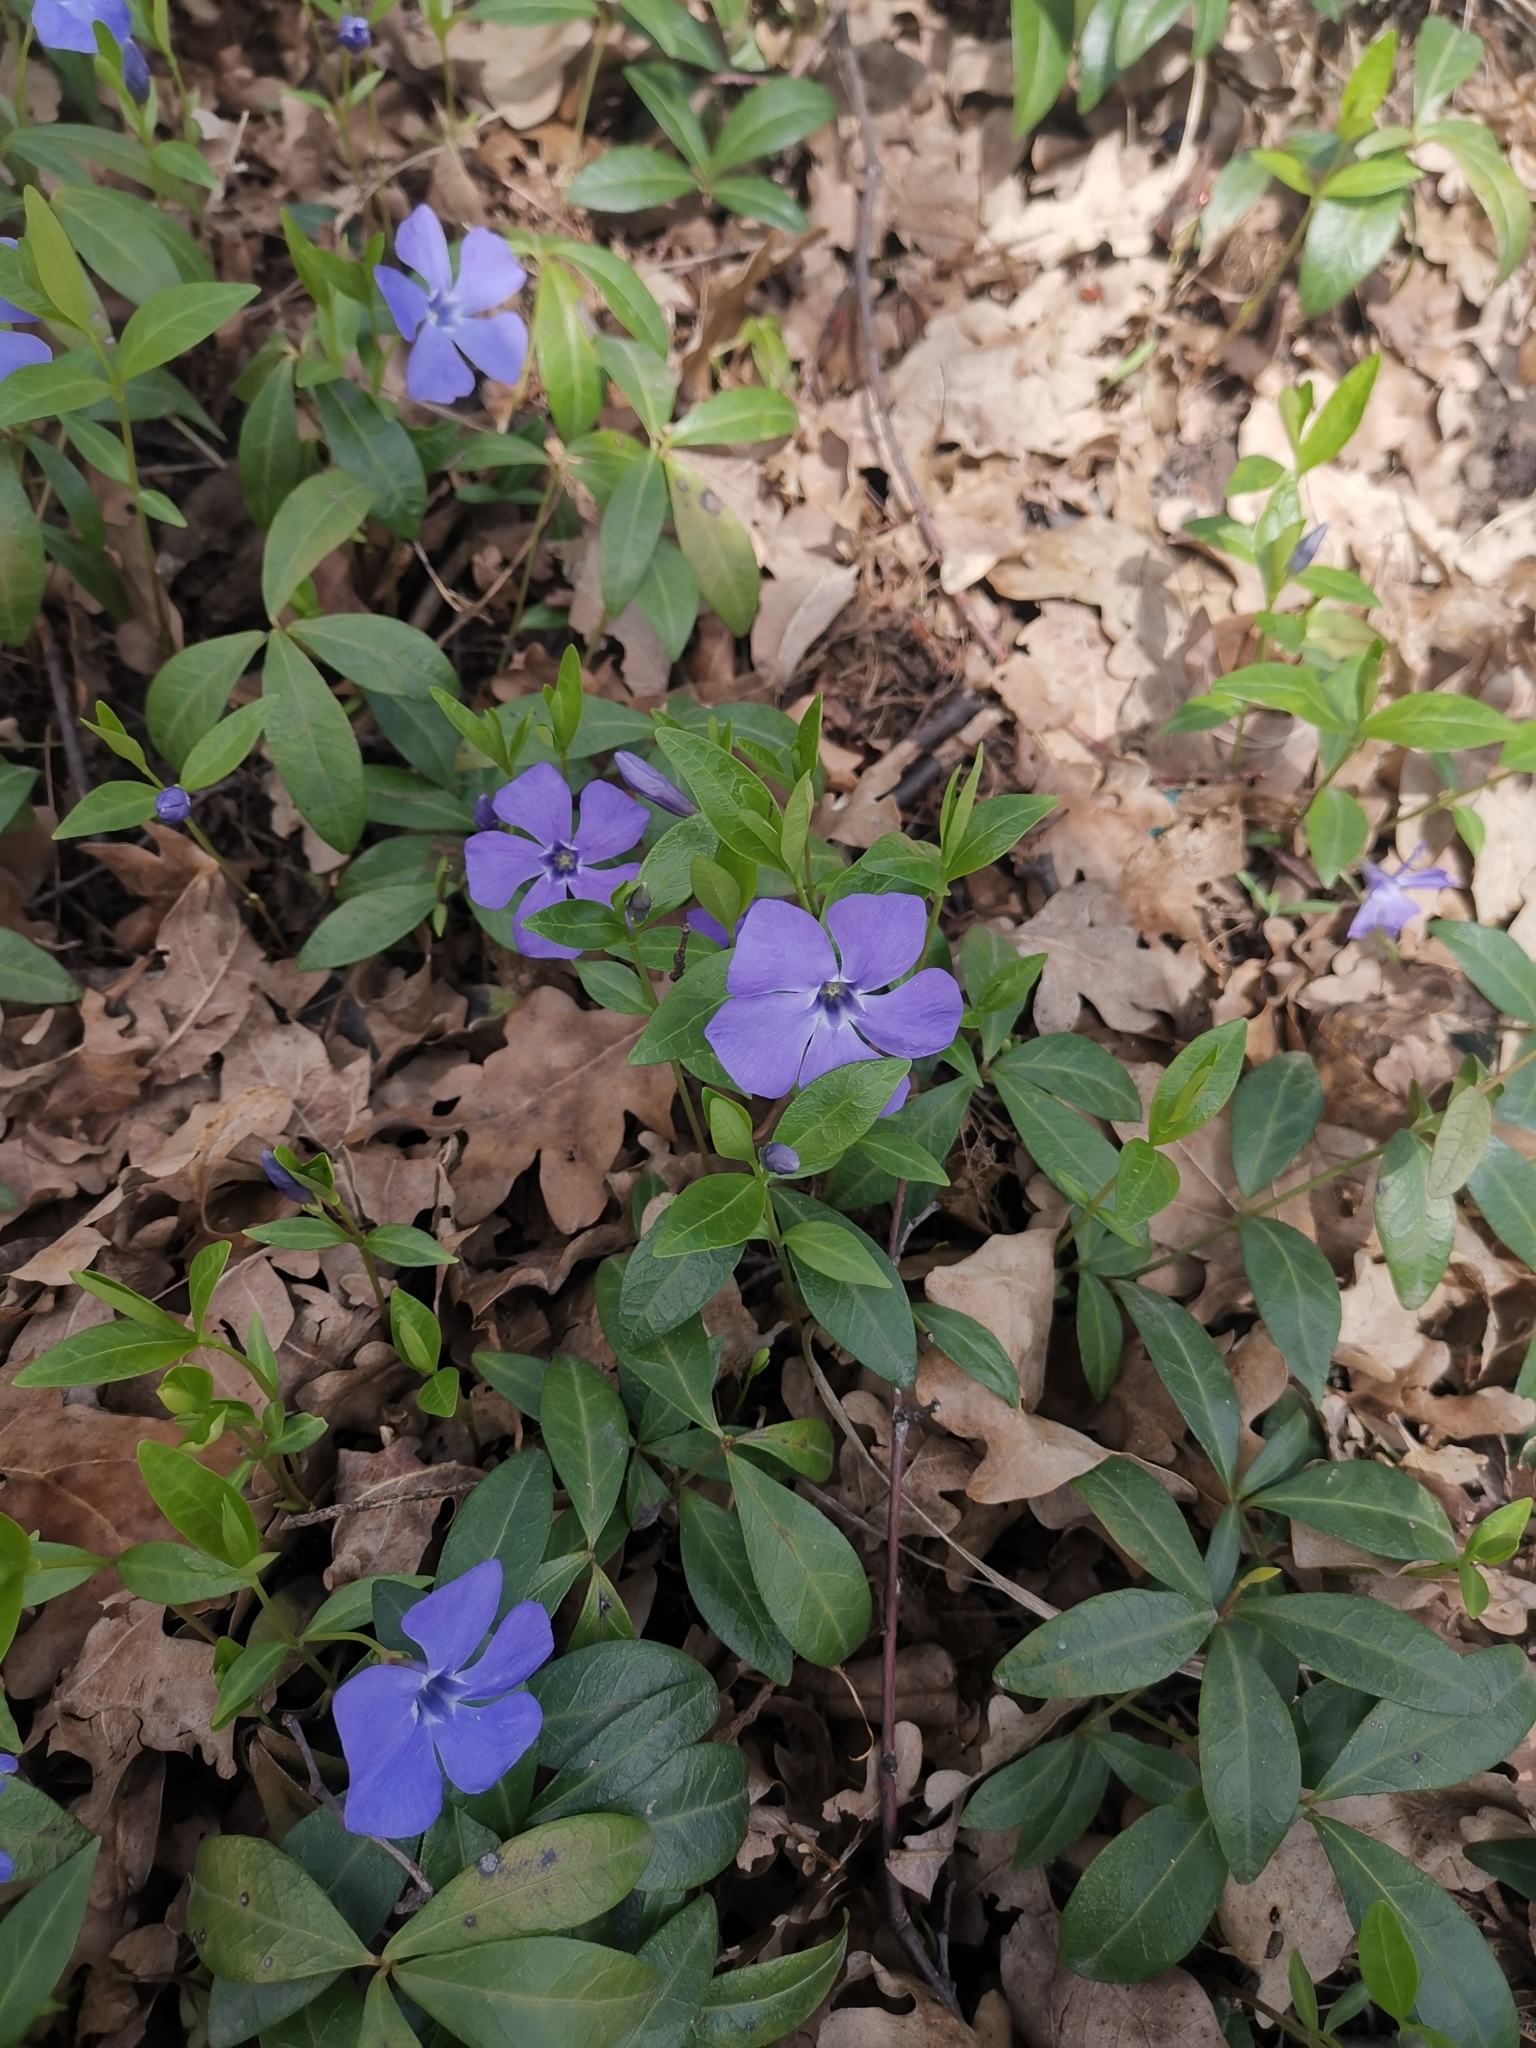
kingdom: Plantae
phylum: Tracheophyta
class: Magnoliopsida
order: Gentianales
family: Apocynaceae
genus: Vinca
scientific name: Vinca minor
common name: Lesser periwinkle
